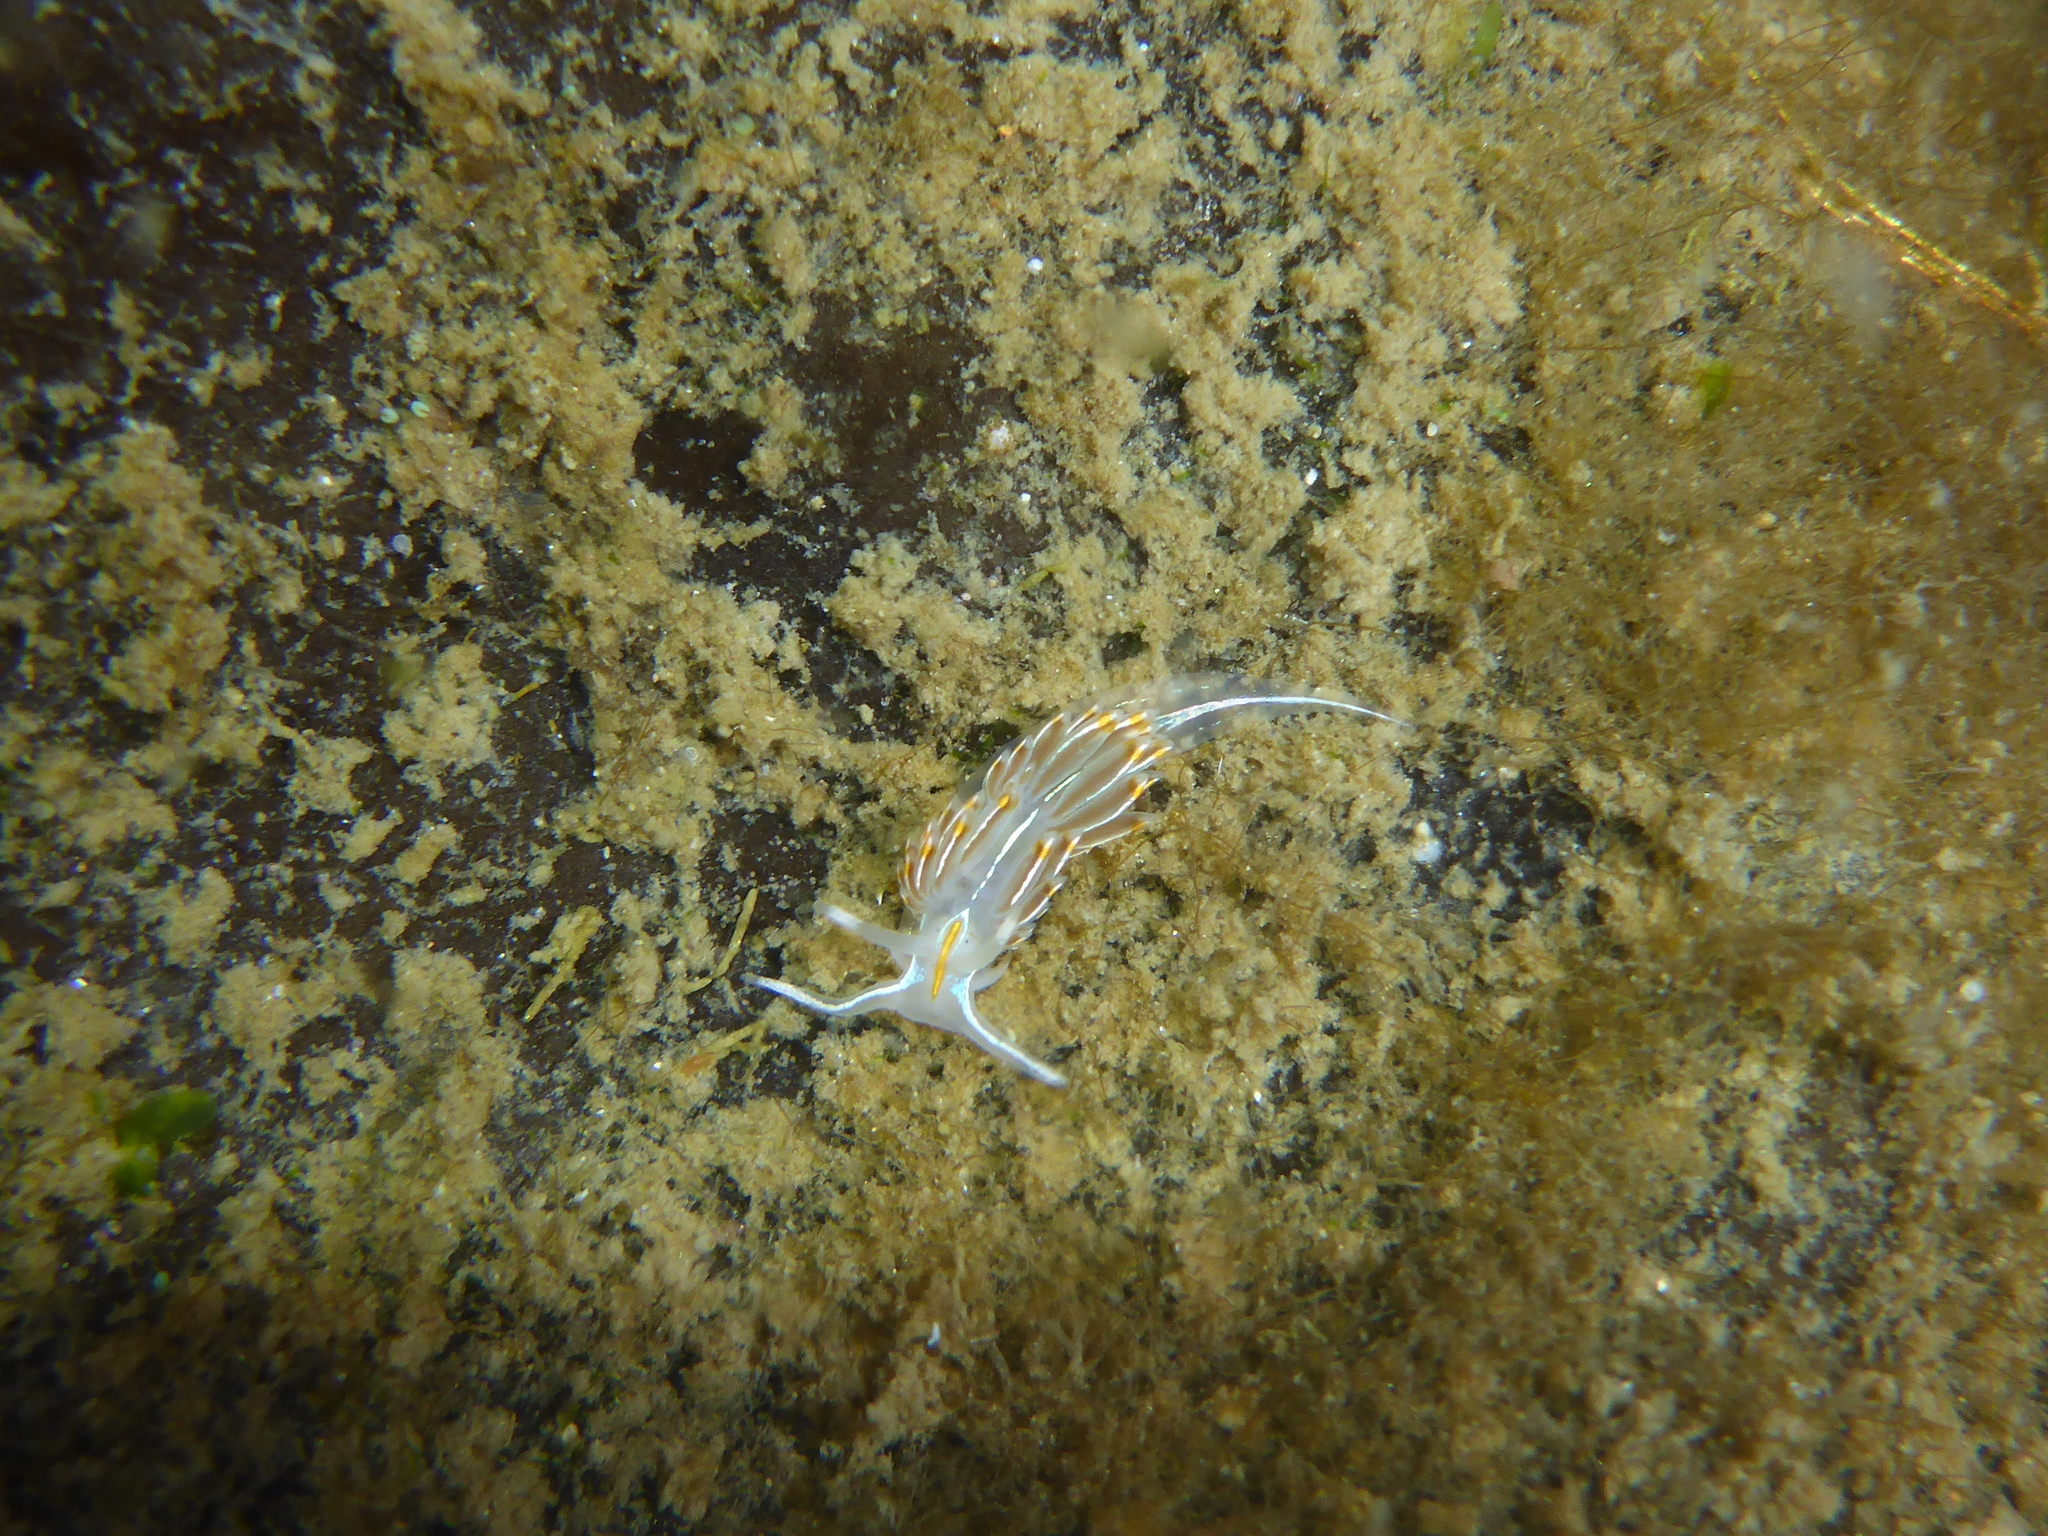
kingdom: Animalia
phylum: Mollusca
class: Gastropoda
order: Nudibranchia
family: Myrrhinidae
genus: Hermissenda
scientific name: Hermissenda crassicornis
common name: Hermissenda
